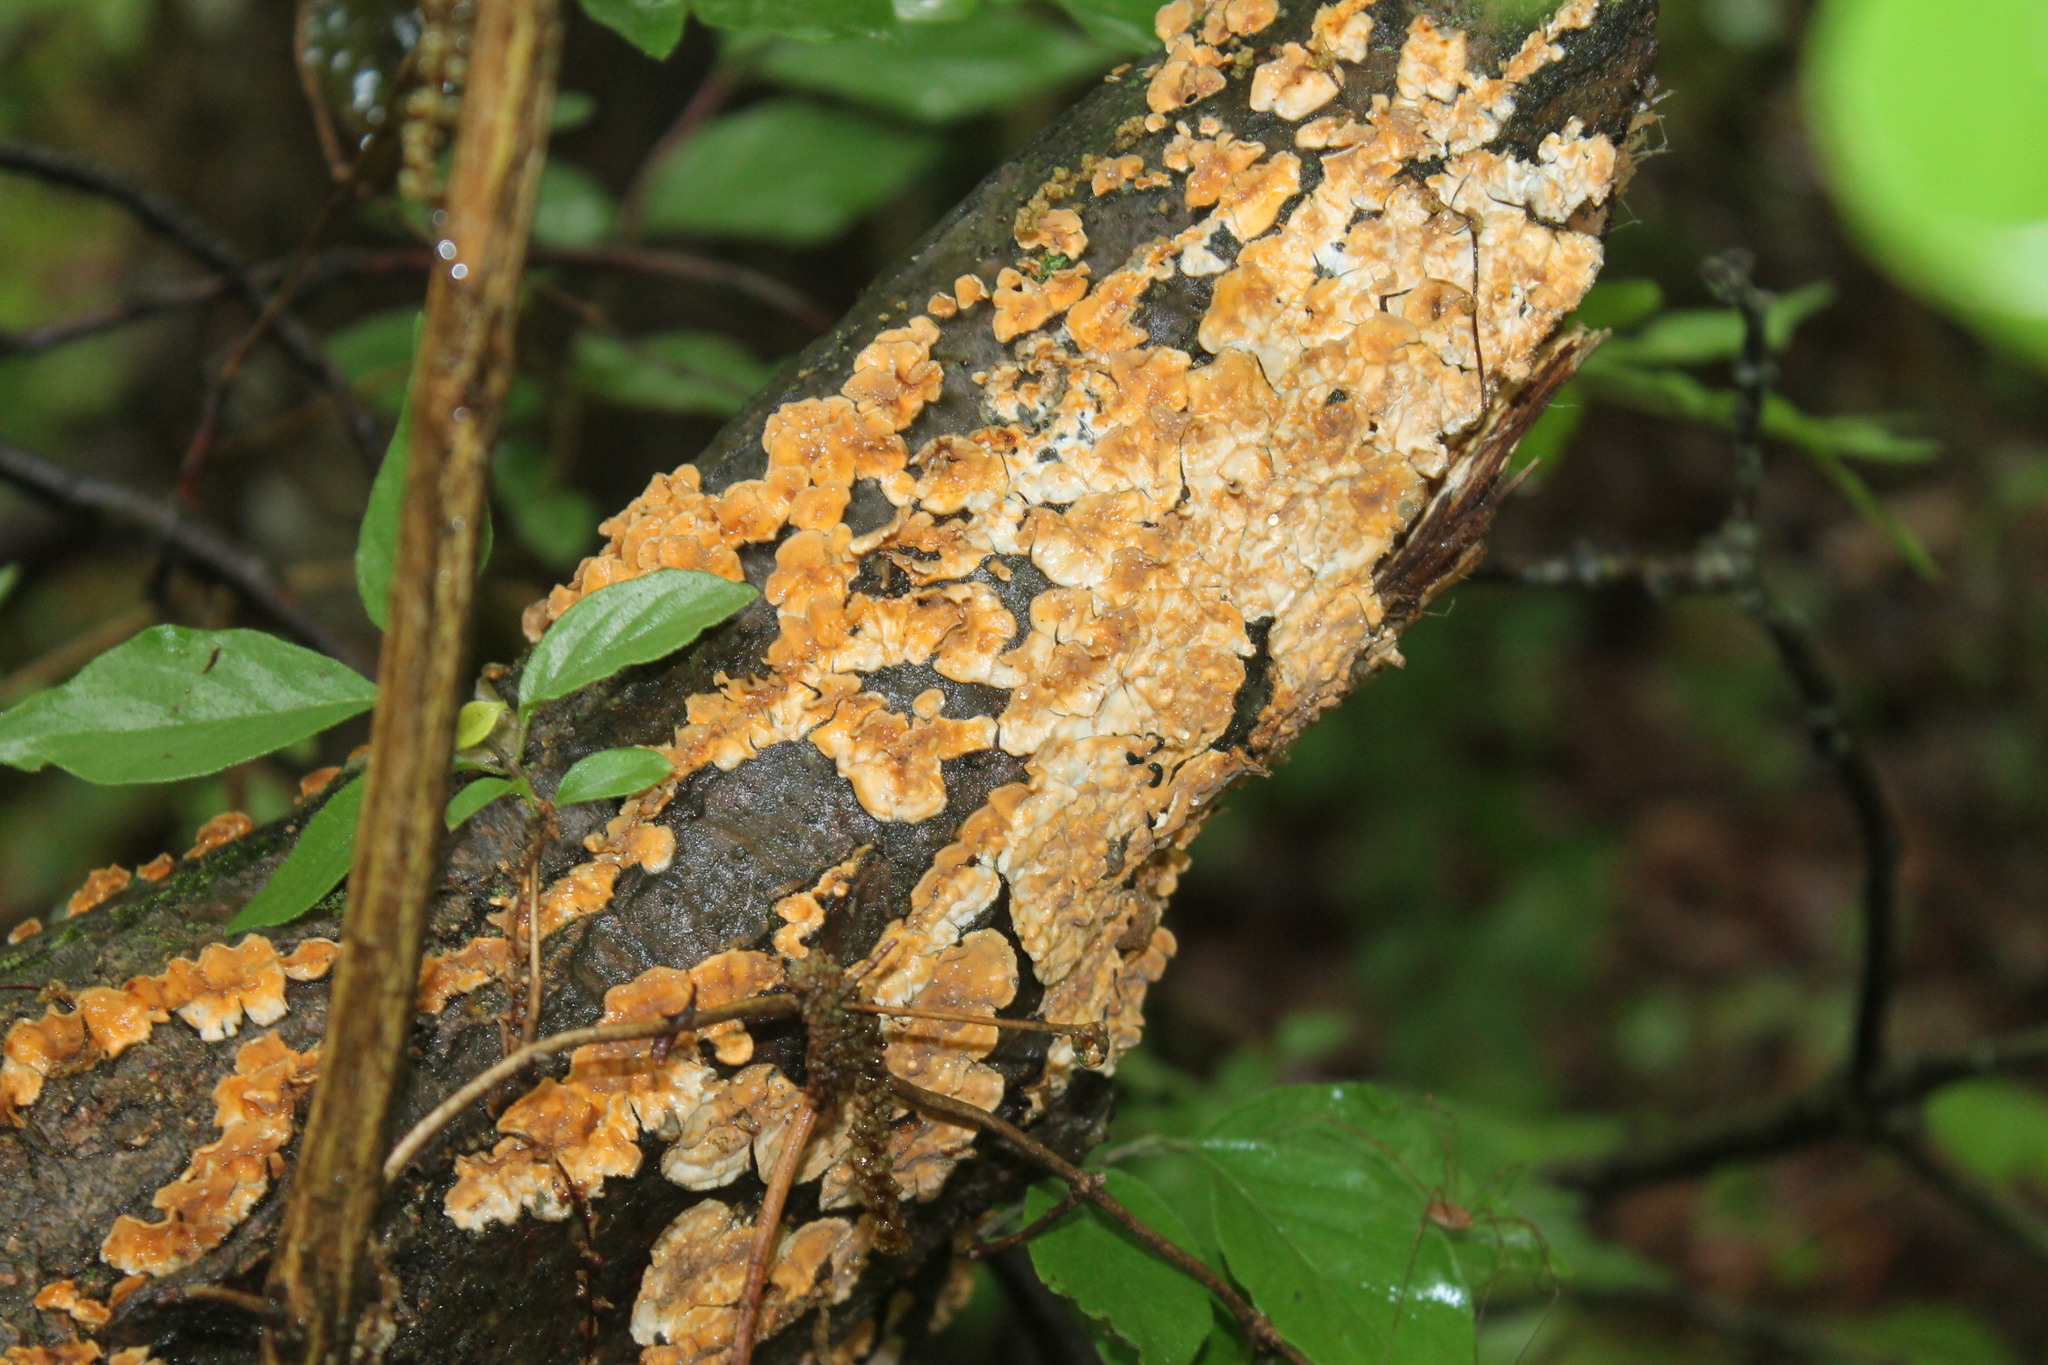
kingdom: Fungi
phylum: Basidiomycota
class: Agaricomycetes
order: Russulales
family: Stereaceae
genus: Stereum
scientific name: Stereum complicatum
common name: Crowded parchment
